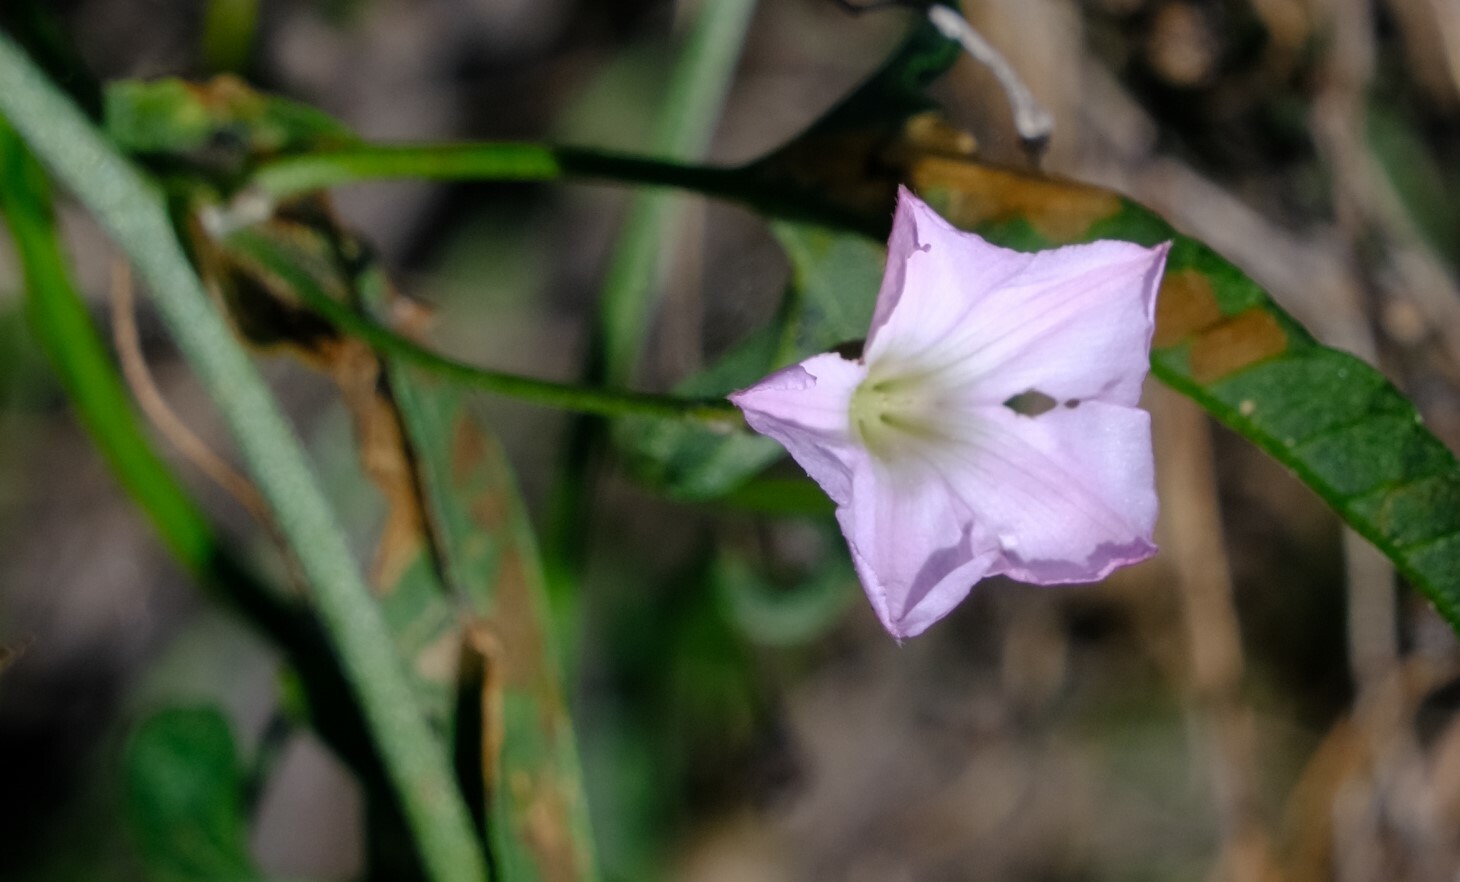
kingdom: Plantae
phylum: Tracheophyta
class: Magnoliopsida
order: Solanales
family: Convolvulaceae
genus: Convolvulus
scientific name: Convolvulus remotus
